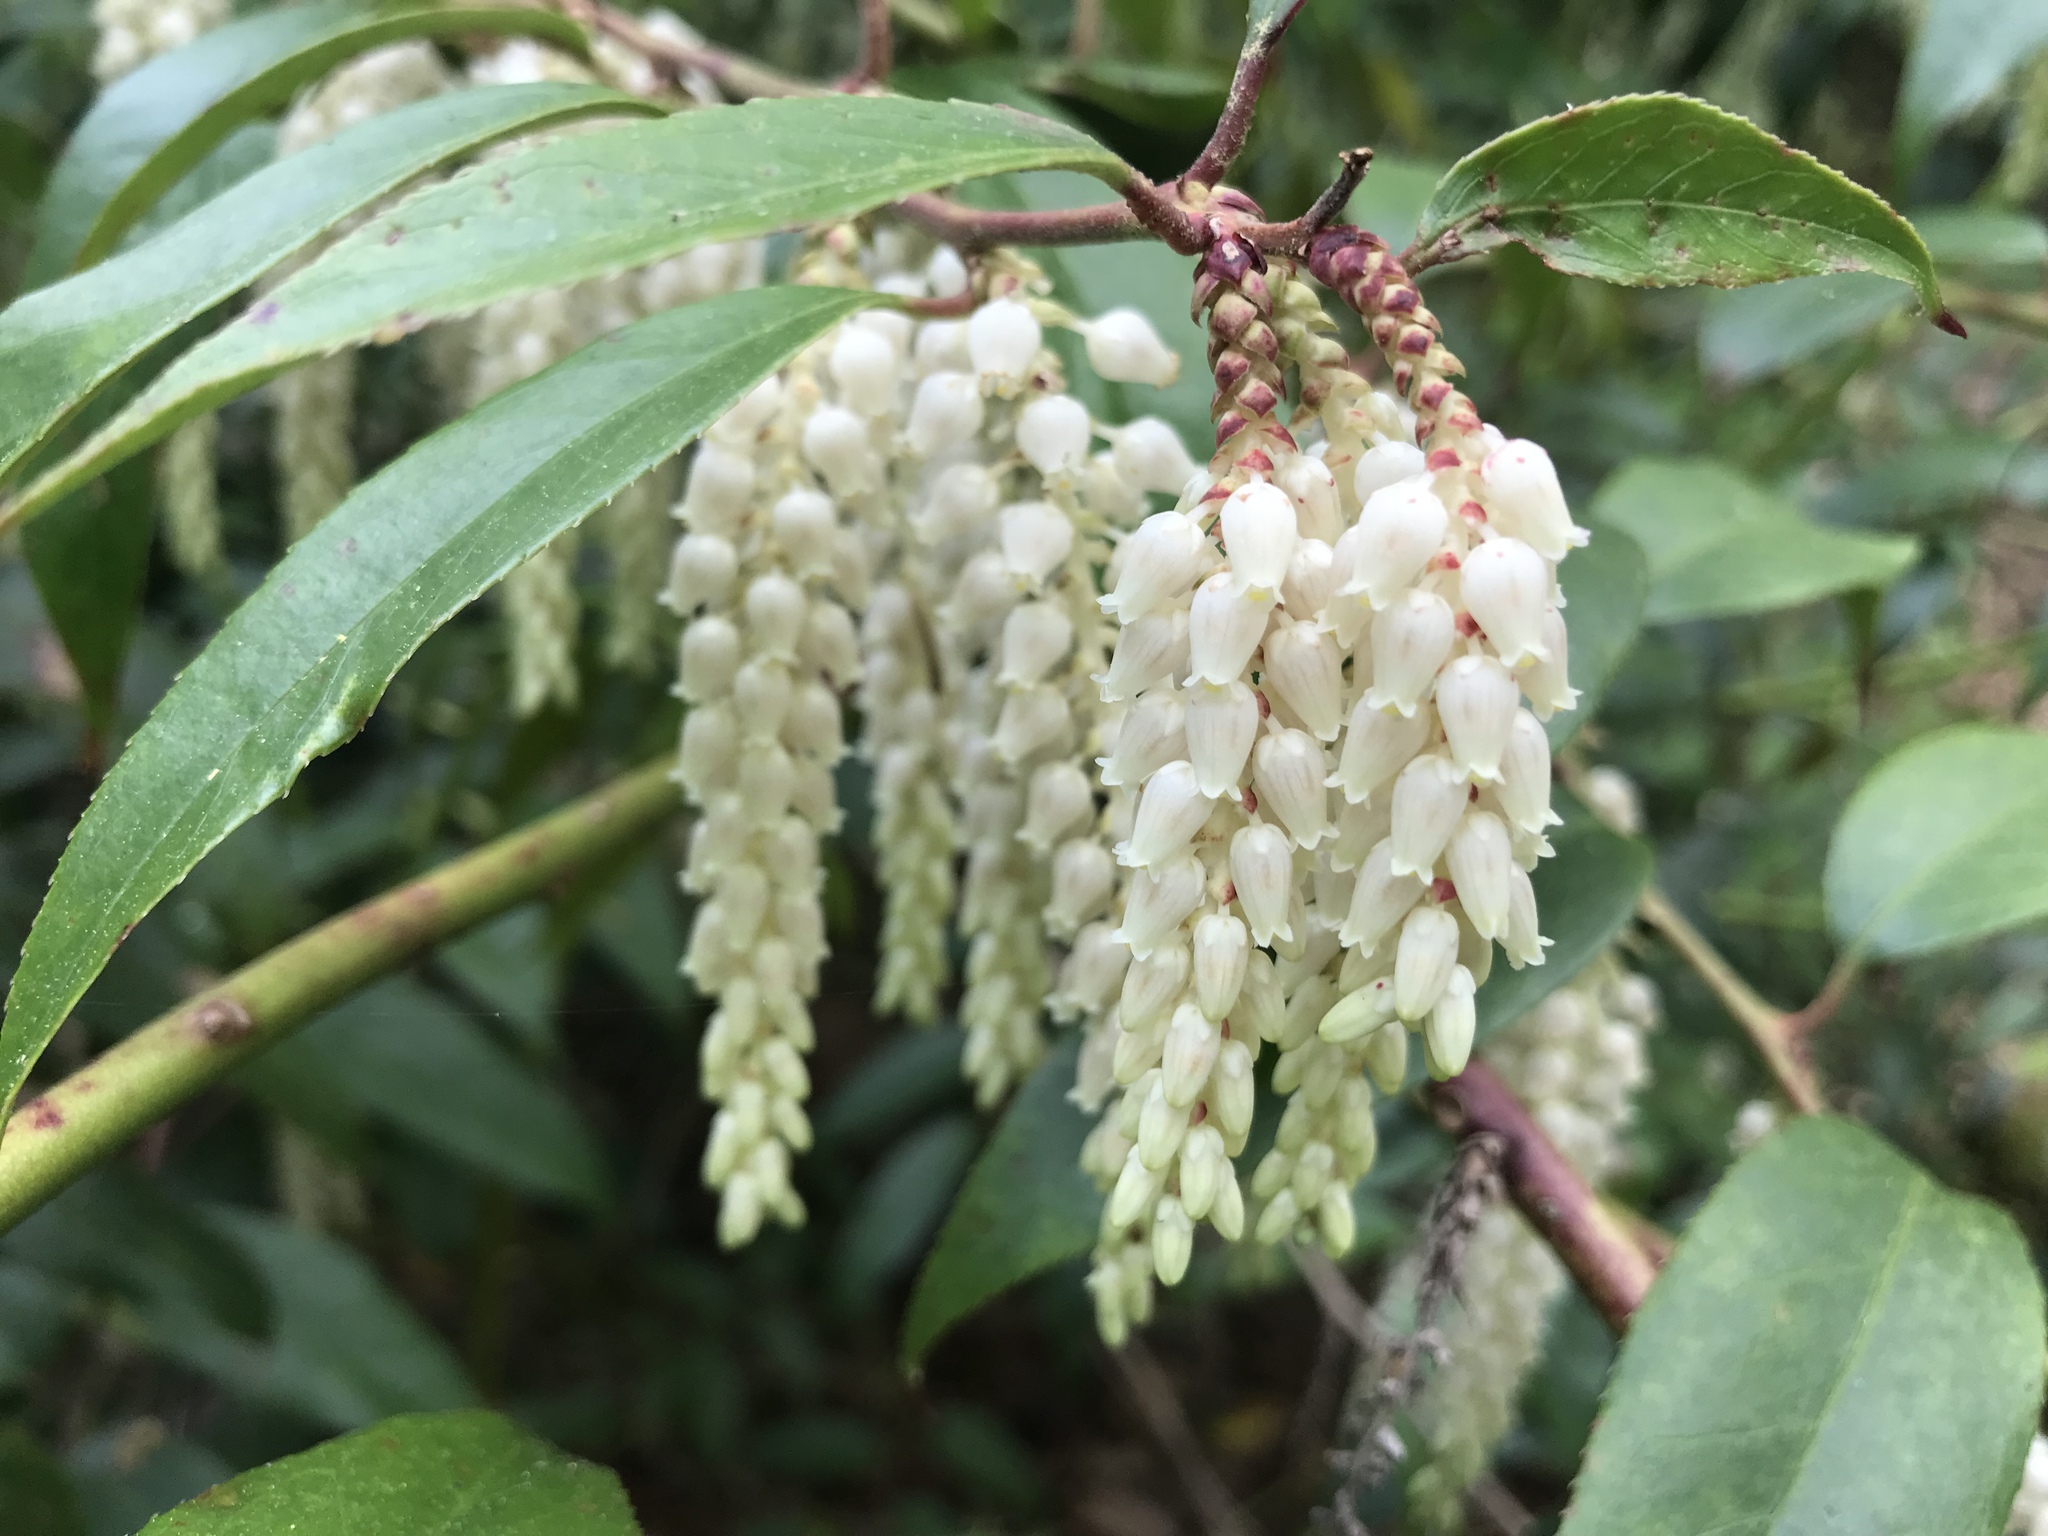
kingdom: Plantae
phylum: Tracheophyta
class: Magnoliopsida
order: Ericales
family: Ericaceae
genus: Leucothoe
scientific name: Leucothoe fontanesiana
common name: Fetterbush
